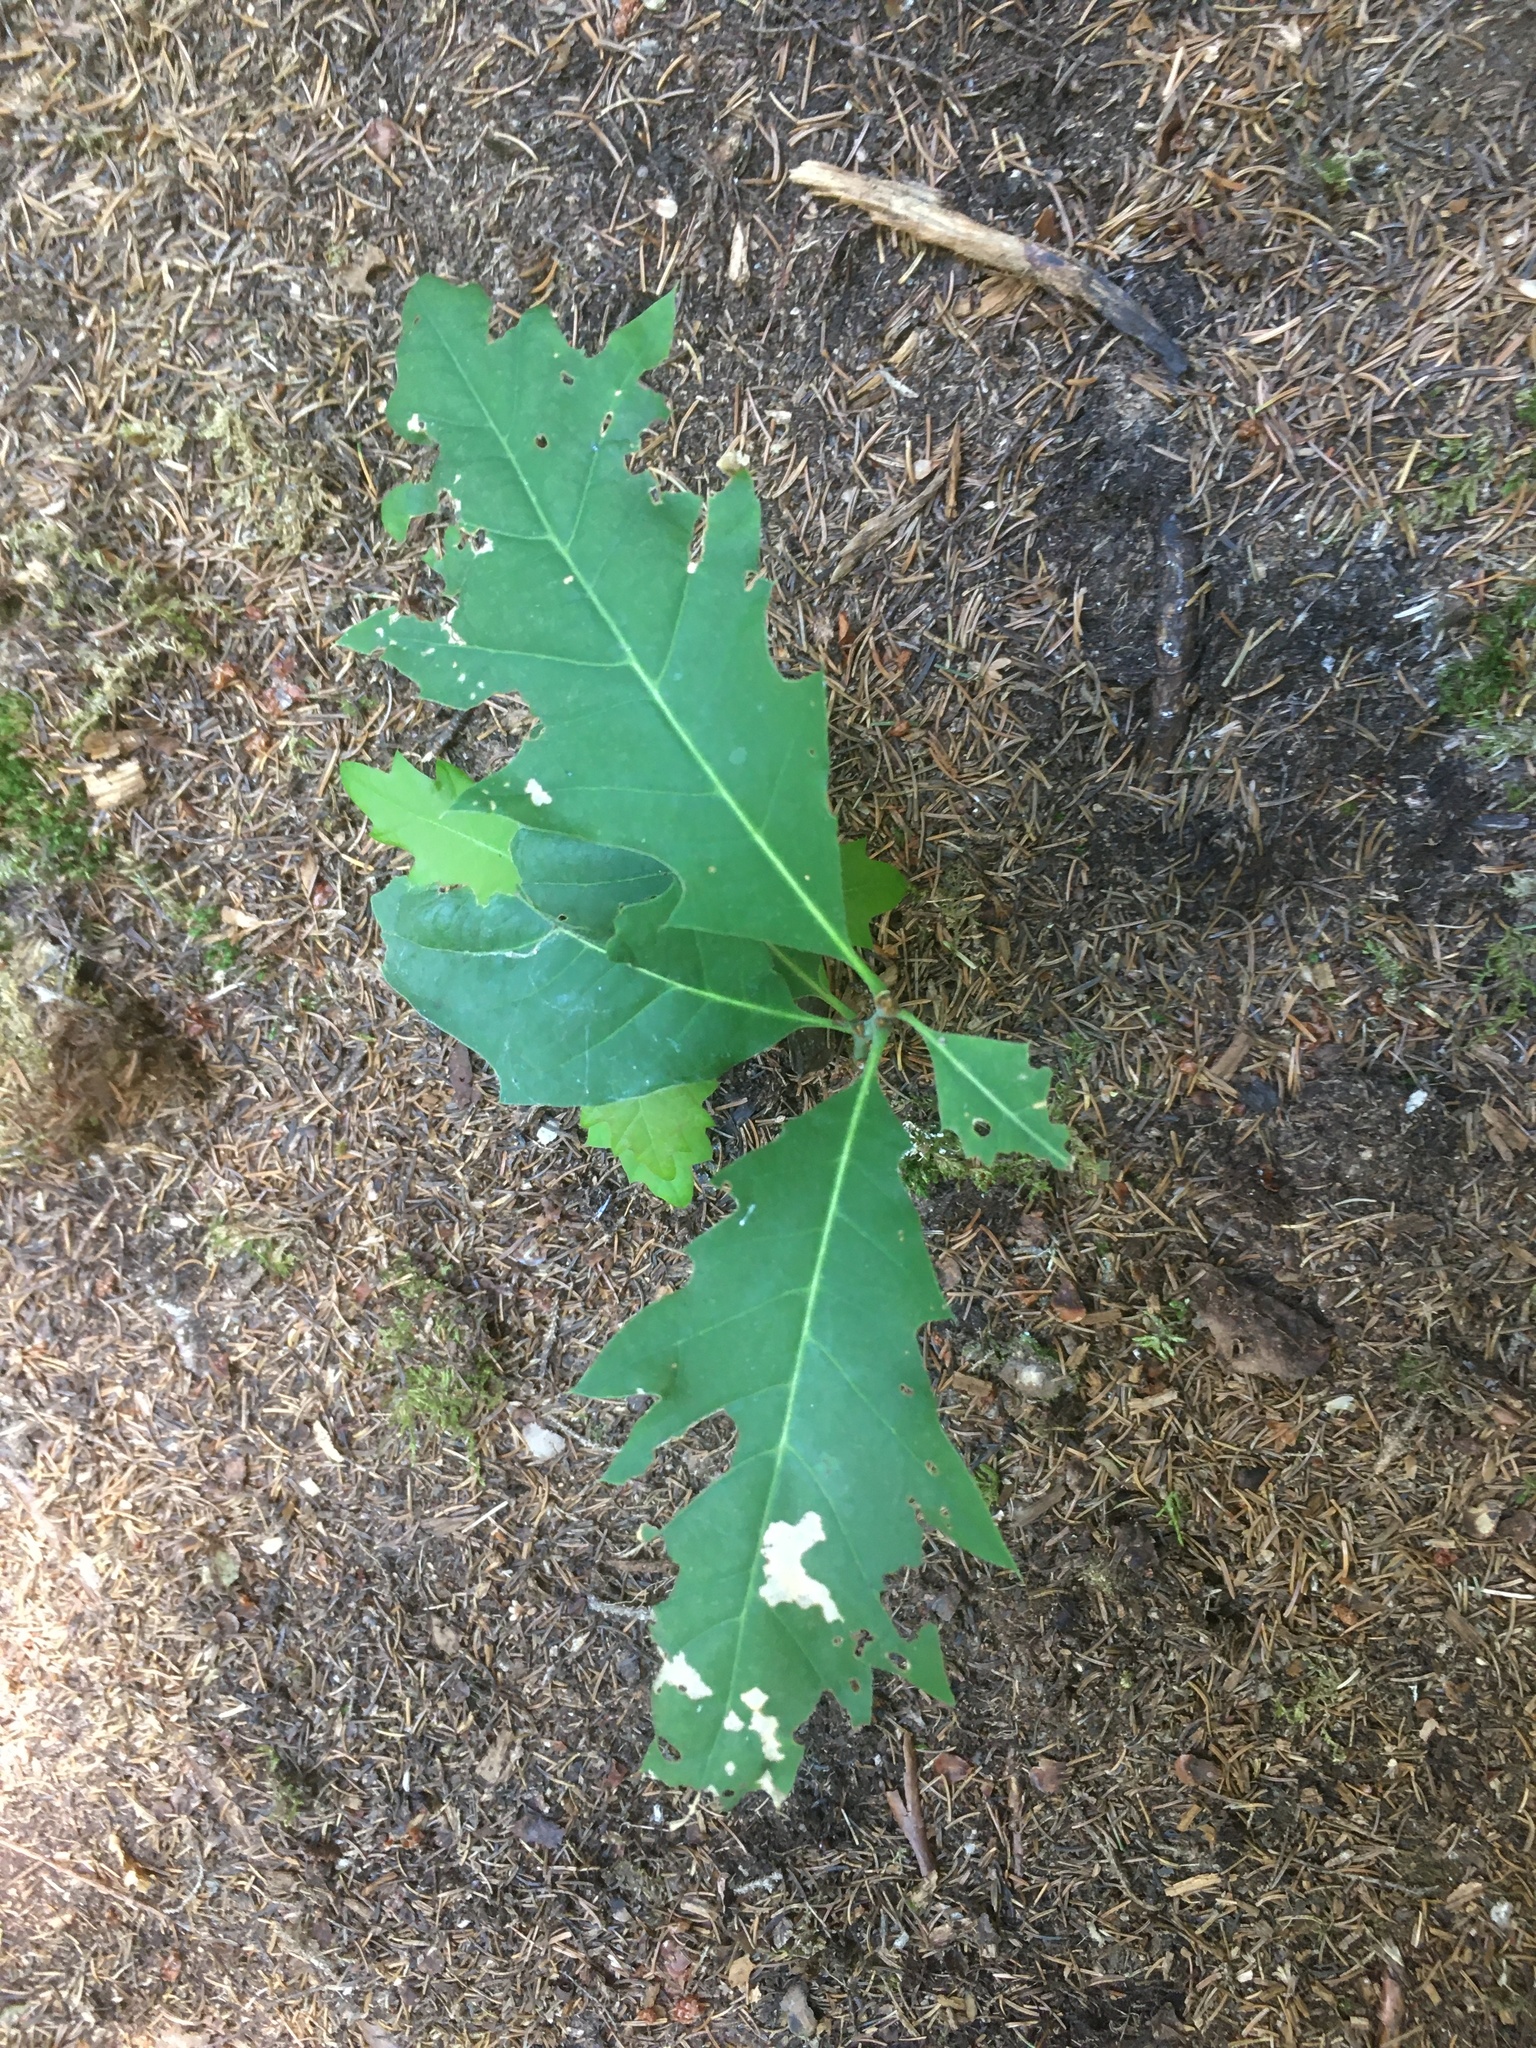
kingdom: Plantae
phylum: Tracheophyta
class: Magnoliopsida
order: Fagales
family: Fagaceae
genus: Quercus
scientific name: Quercus rubra
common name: Red oak
